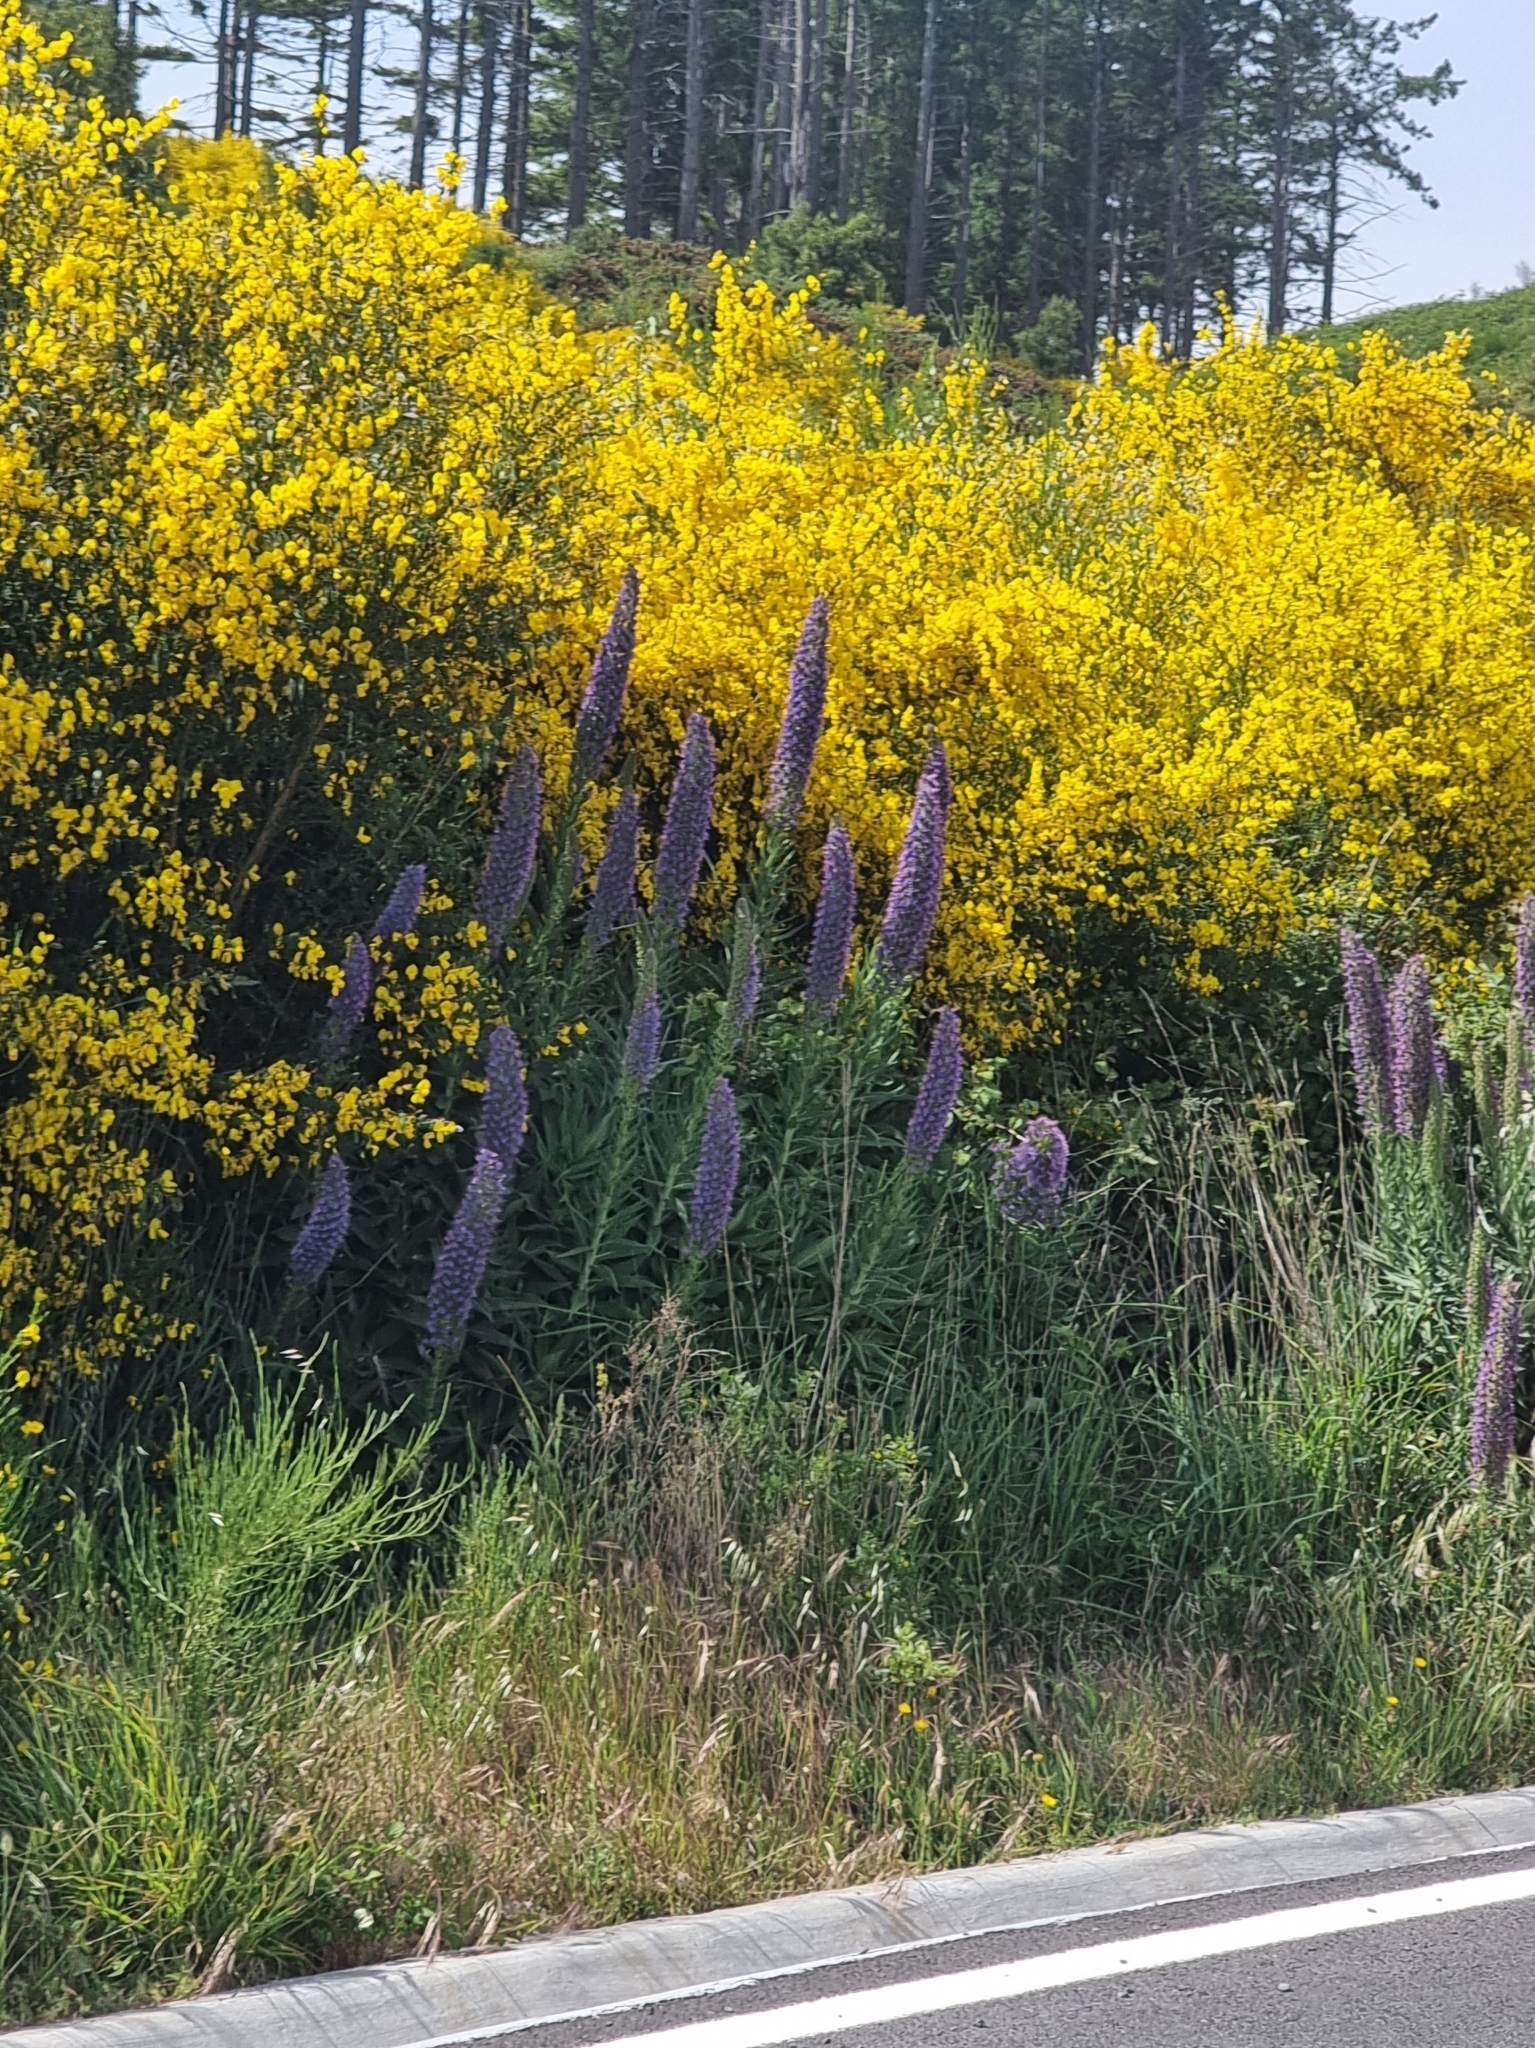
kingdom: Plantae
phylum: Tracheophyta
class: Magnoliopsida
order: Boraginales
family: Boraginaceae
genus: Echium
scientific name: Echium candicans
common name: Pride of madeira
